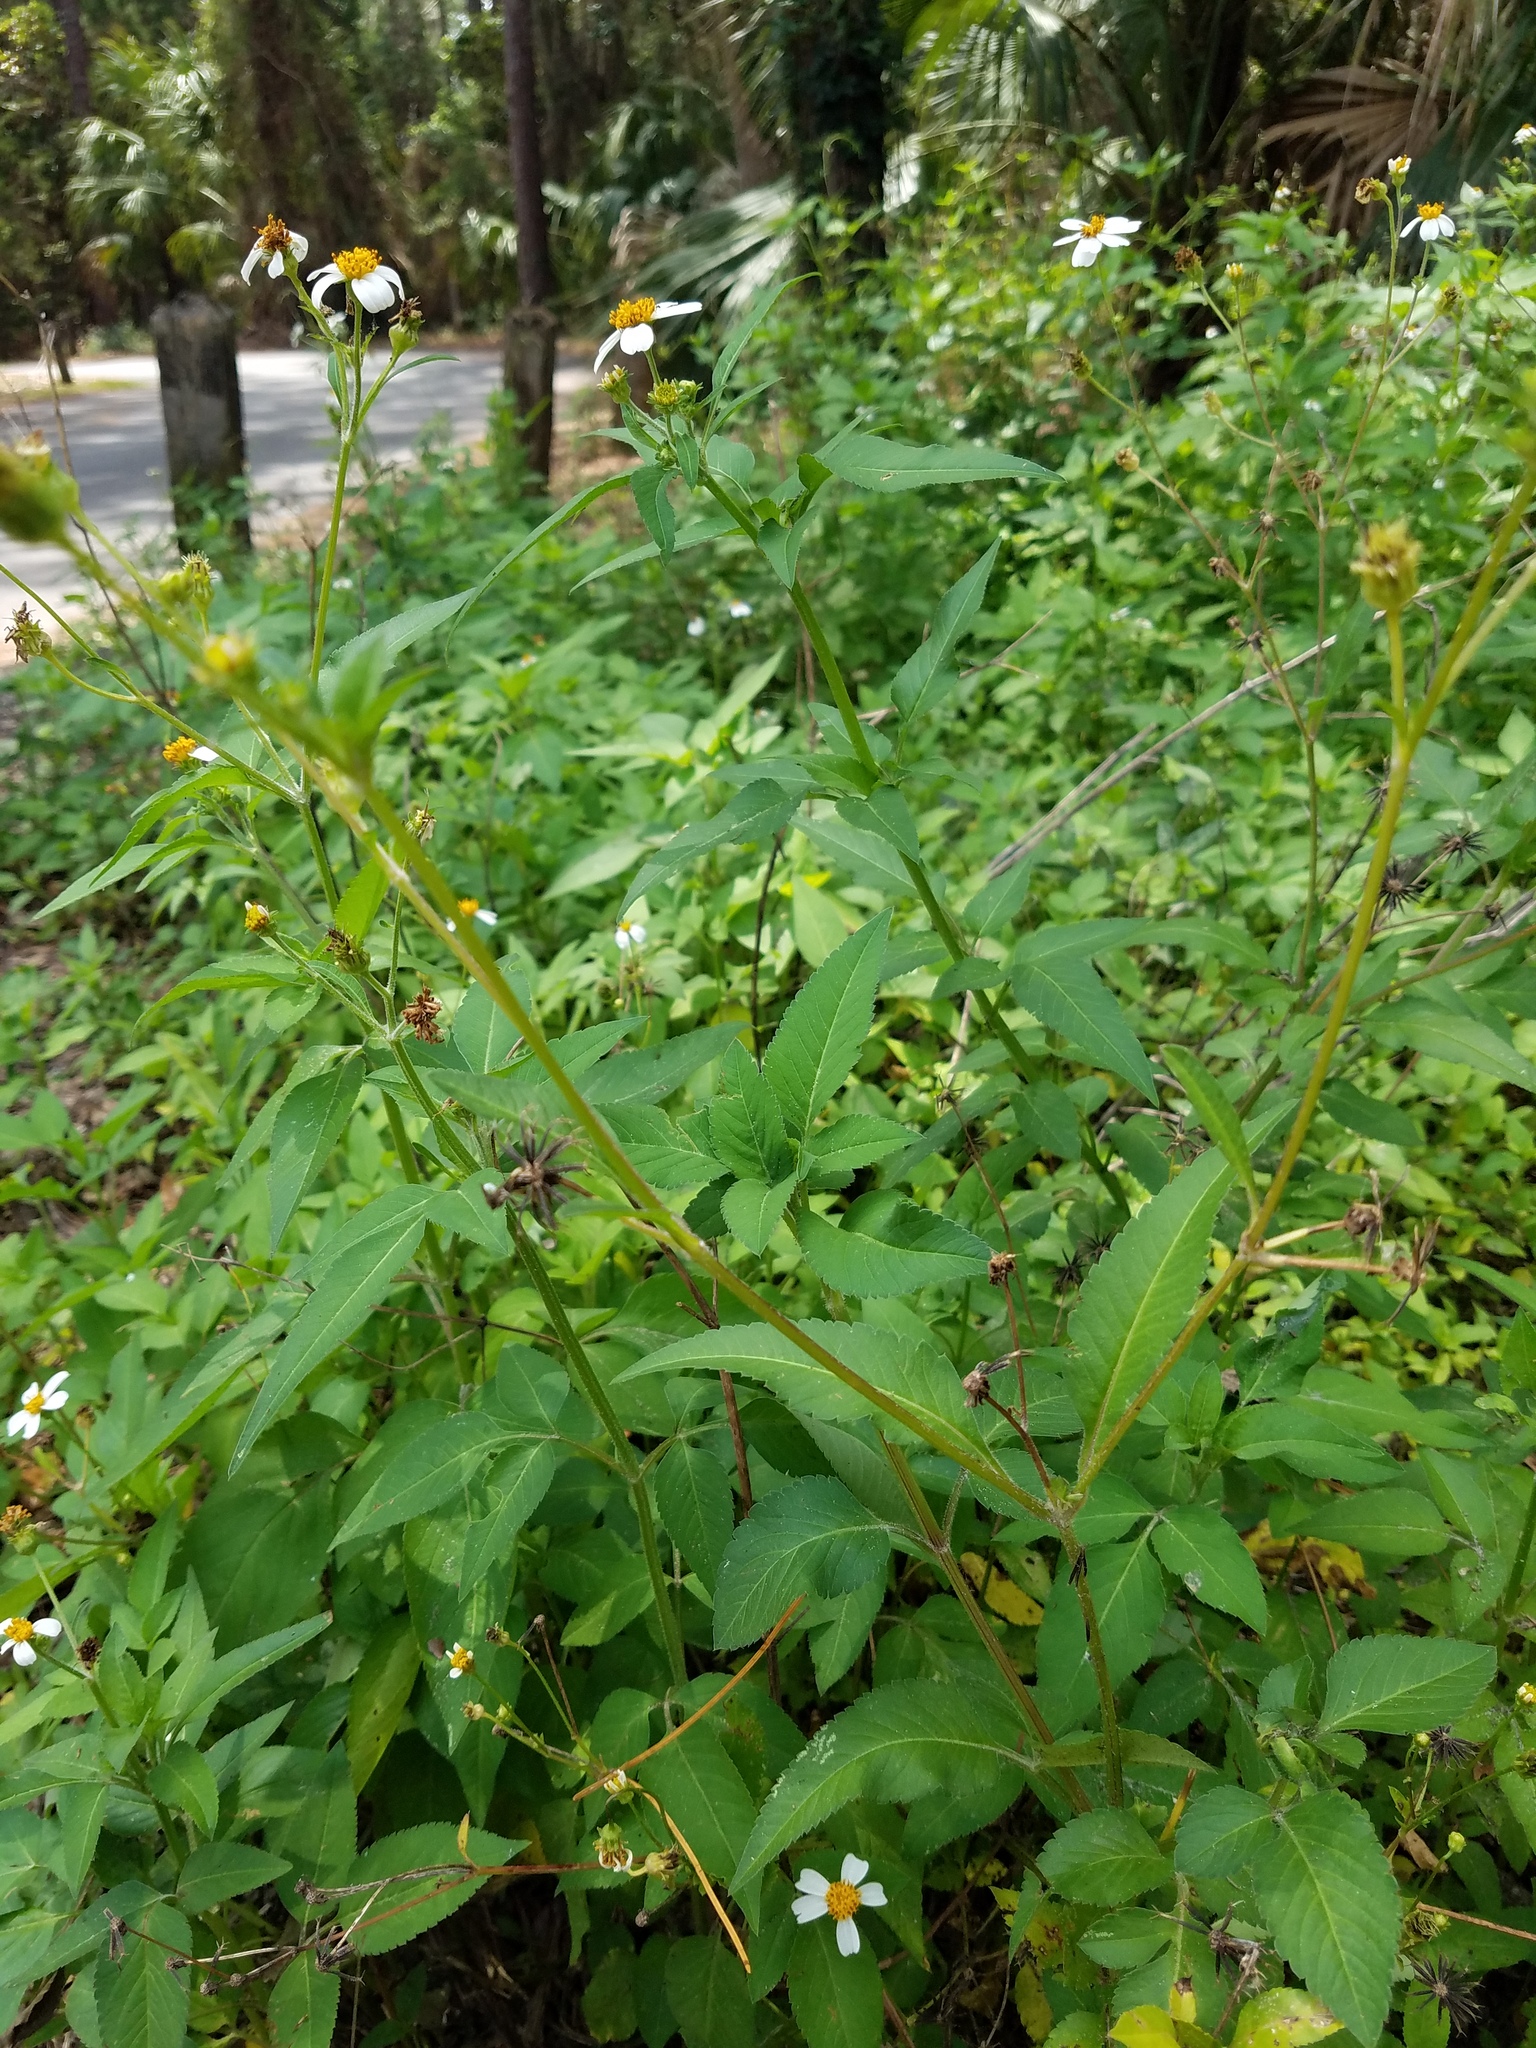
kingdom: Plantae
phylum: Tracheophyta
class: Magnoliopsida
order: Asterales
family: Asteraceae
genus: Bidens
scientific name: Bidens alba
